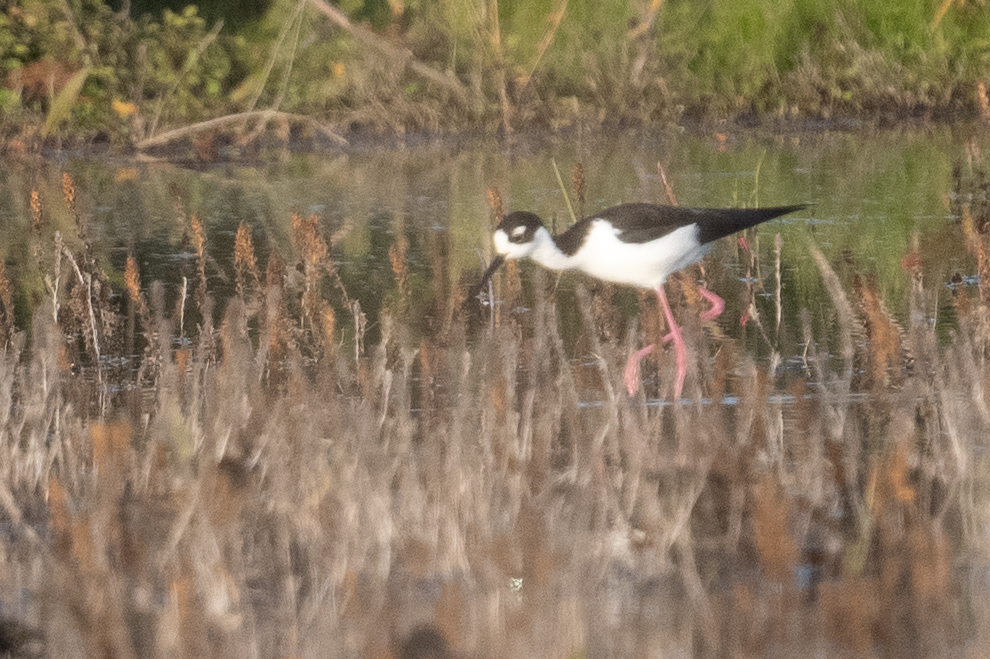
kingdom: Animalia
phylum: Chordata
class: Aves
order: Charadriiformes
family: Recurvirostridae
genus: Himantopus
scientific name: Himantopus mexicanus
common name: Black-necked stilt
